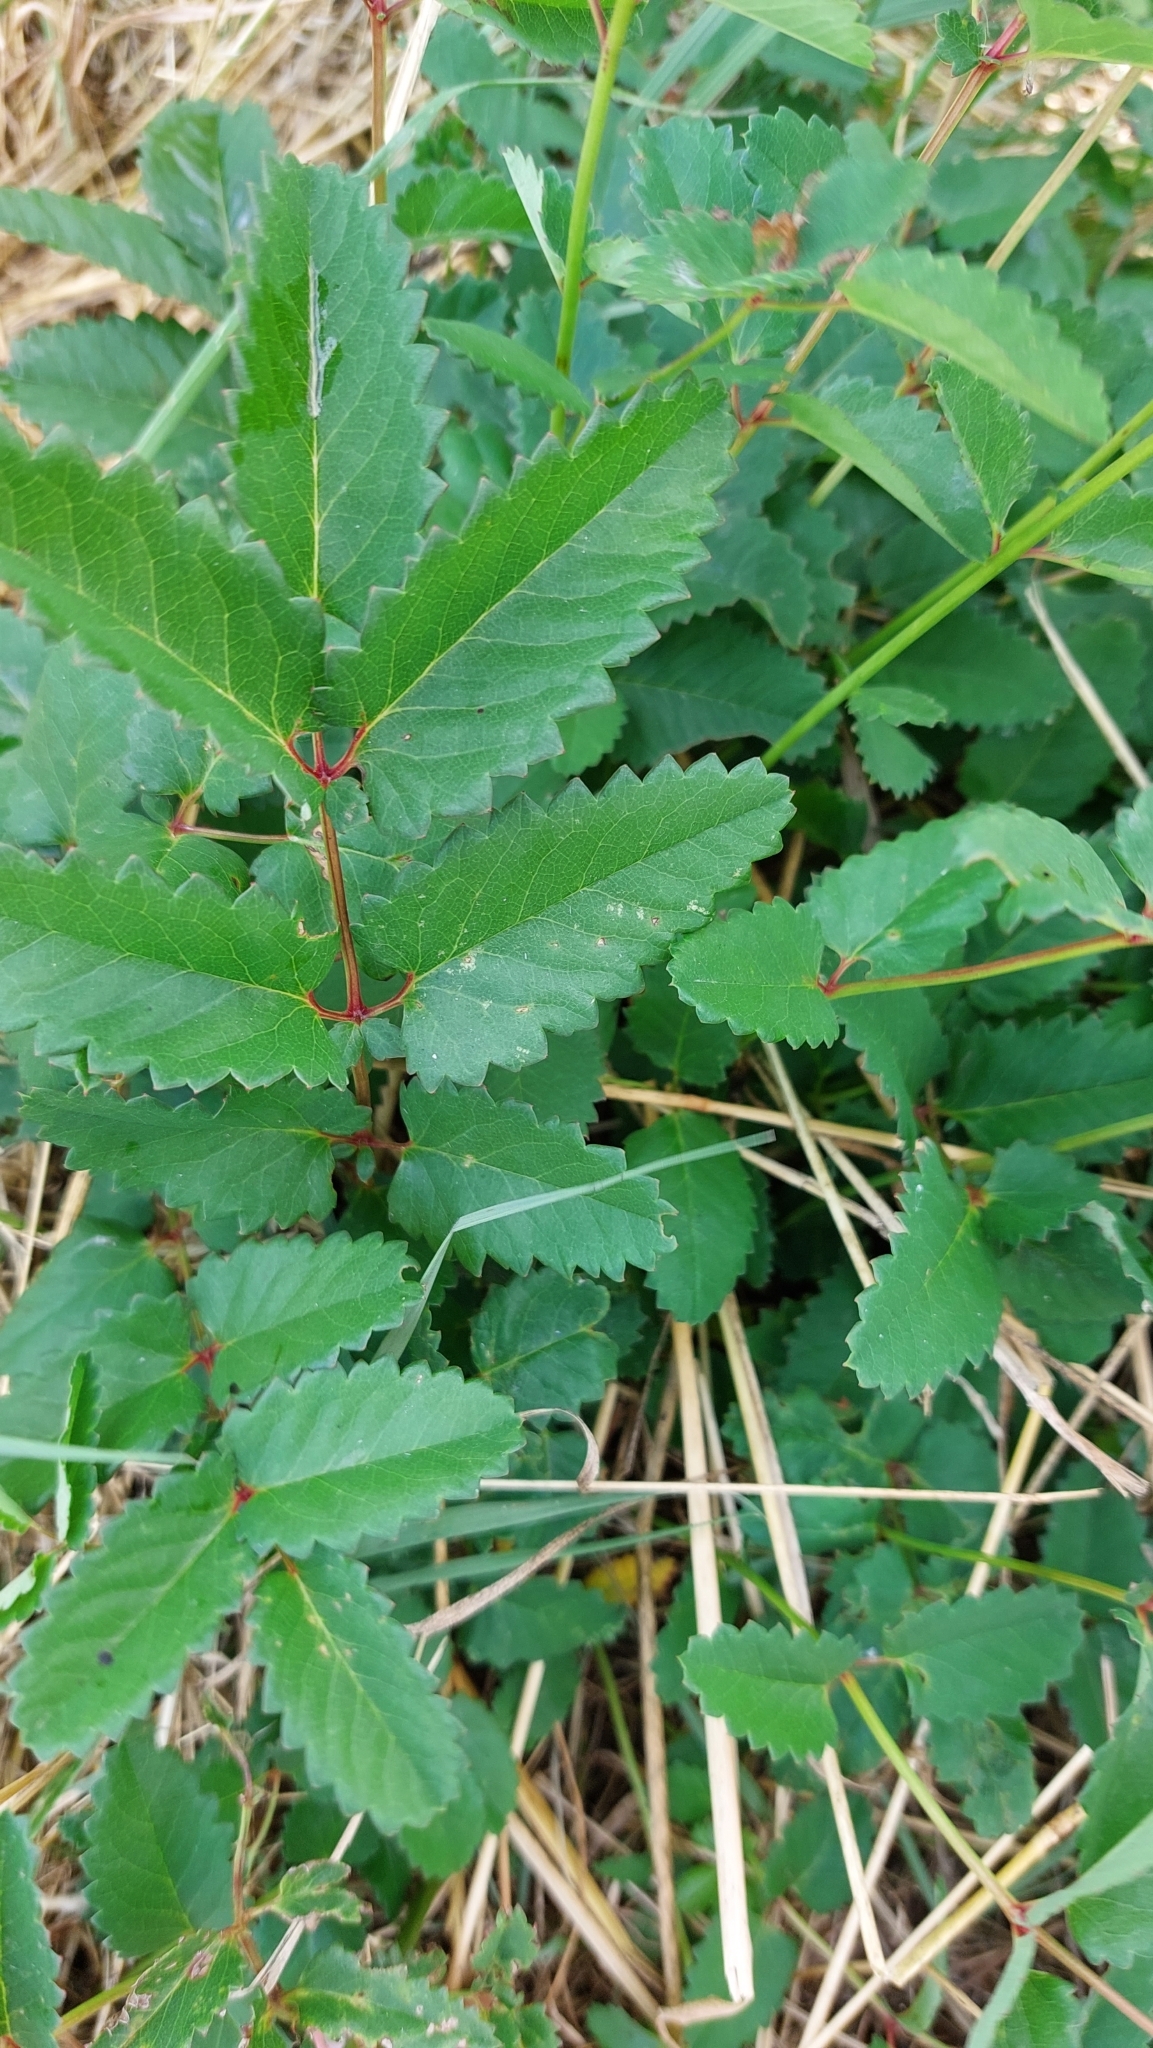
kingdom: Plantae
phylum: Tracheophyta
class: Magnoliopsida
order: Rosales
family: Rosaceae
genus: Sanguisorba
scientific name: Sanguisorba officinalis
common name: Great burnet
